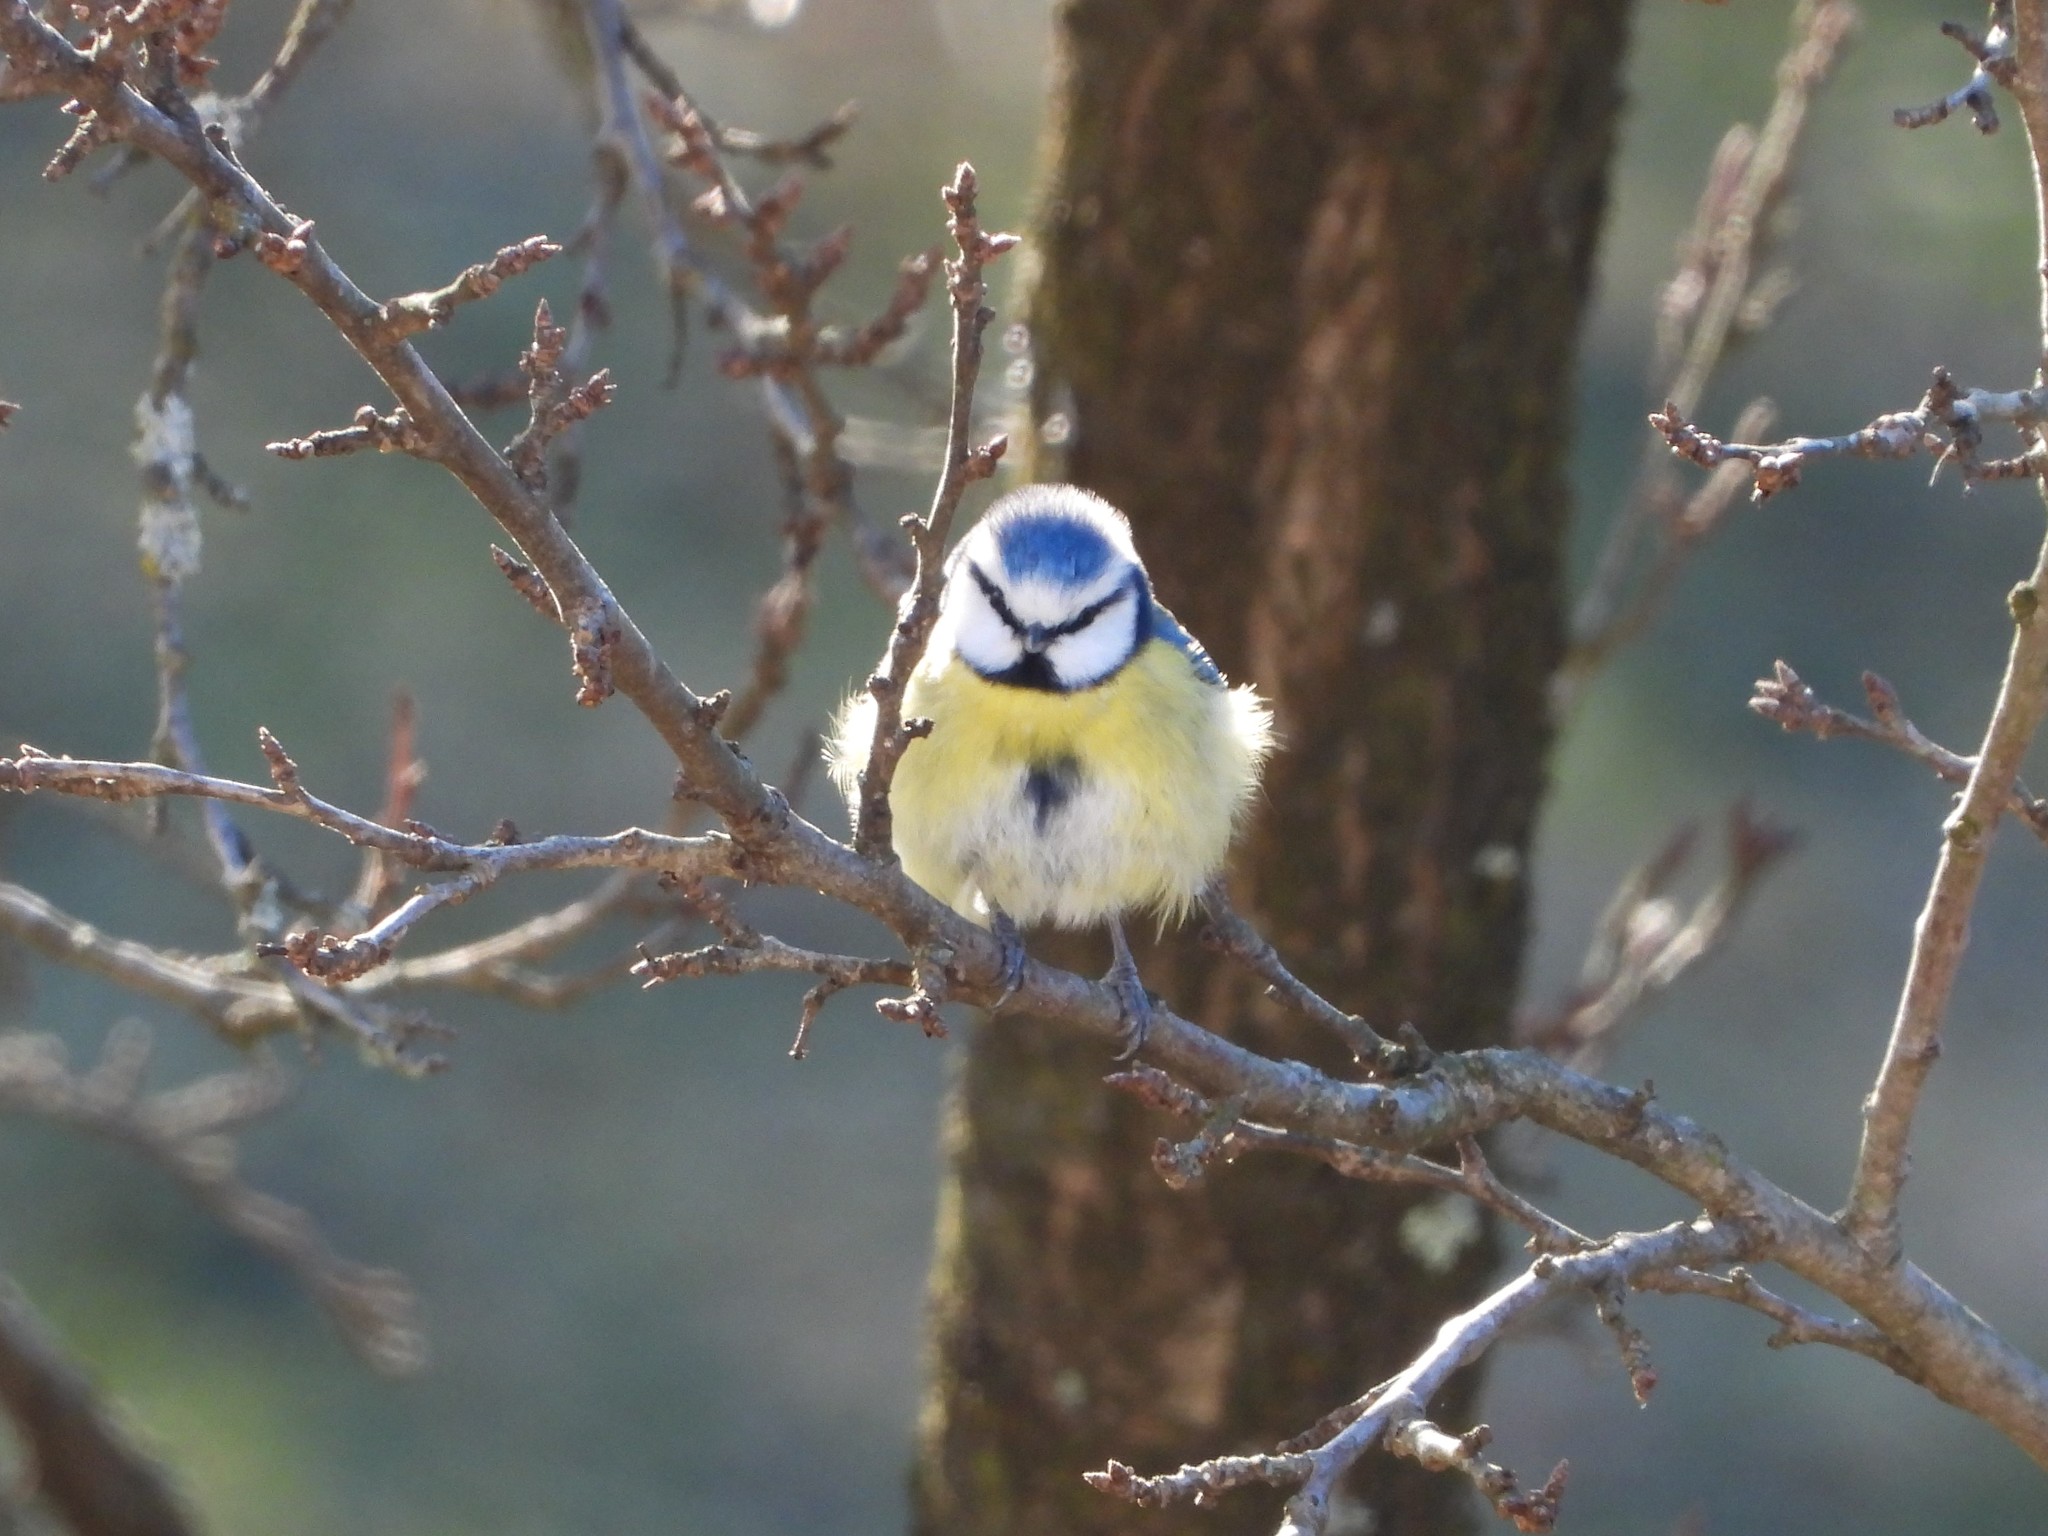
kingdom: Animalia
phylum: Chordata
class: Aves
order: Passeriformes
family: Paridae
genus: Cyanistes
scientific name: Cyanistes caeruleus
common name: Eurasian blue tit
